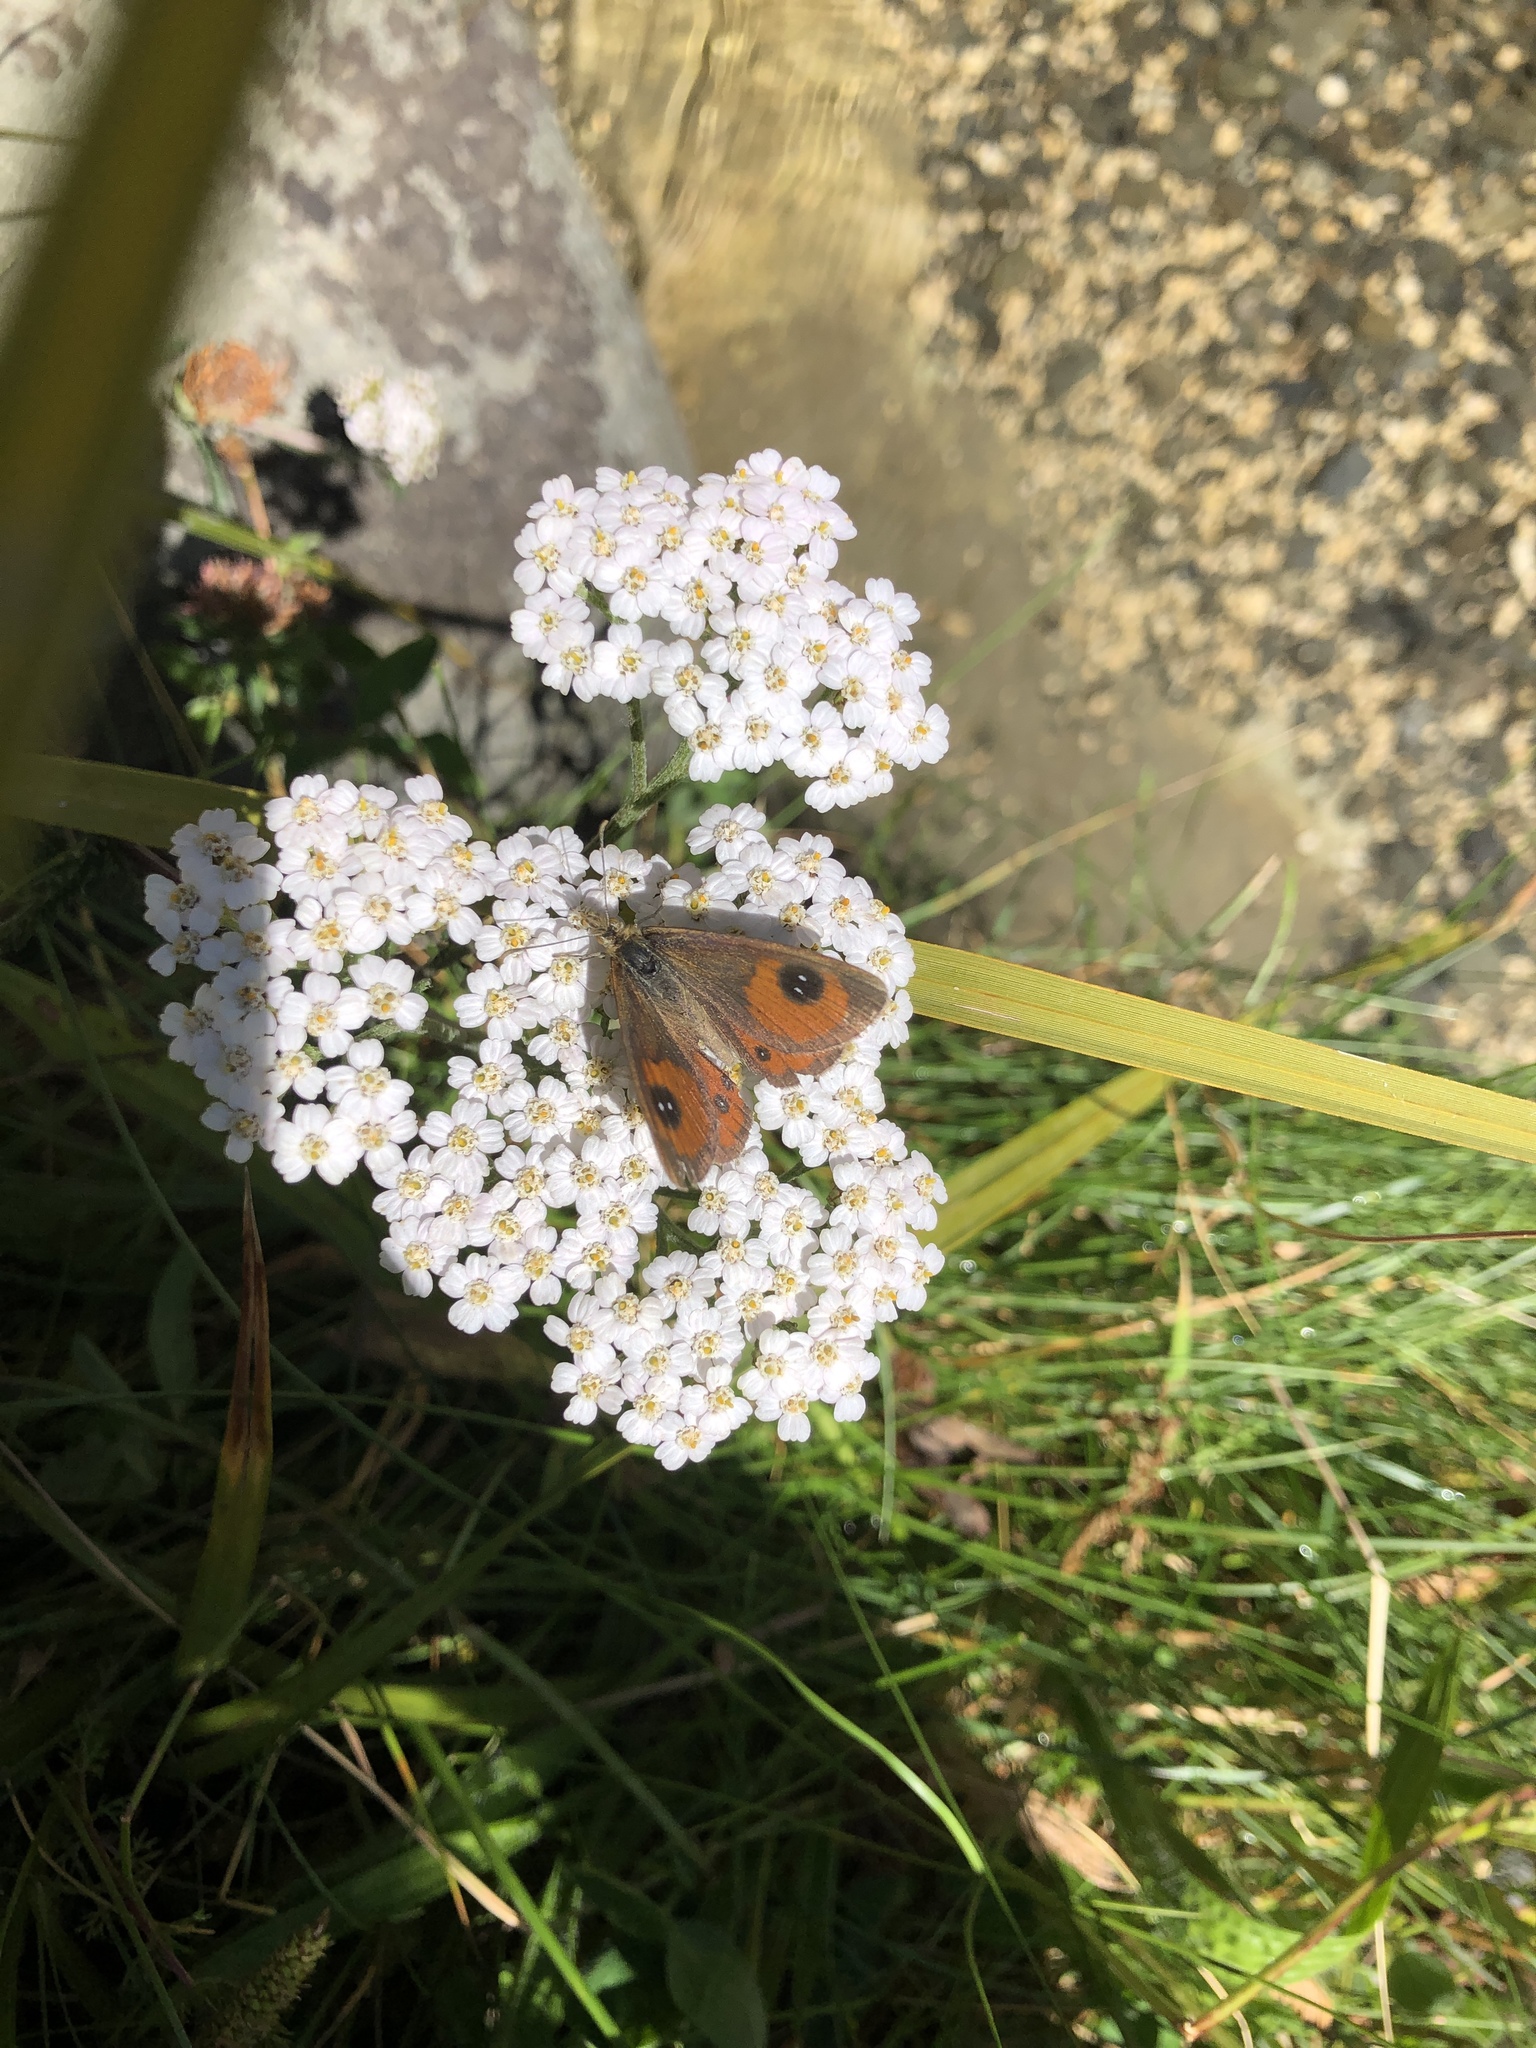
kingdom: Animalia
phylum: Arthropoda
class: Insecta
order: Lepidoptera
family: Nymphalidae
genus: Argyrophenga
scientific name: Argyrophenga antipodum
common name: Common tussock butterfly
